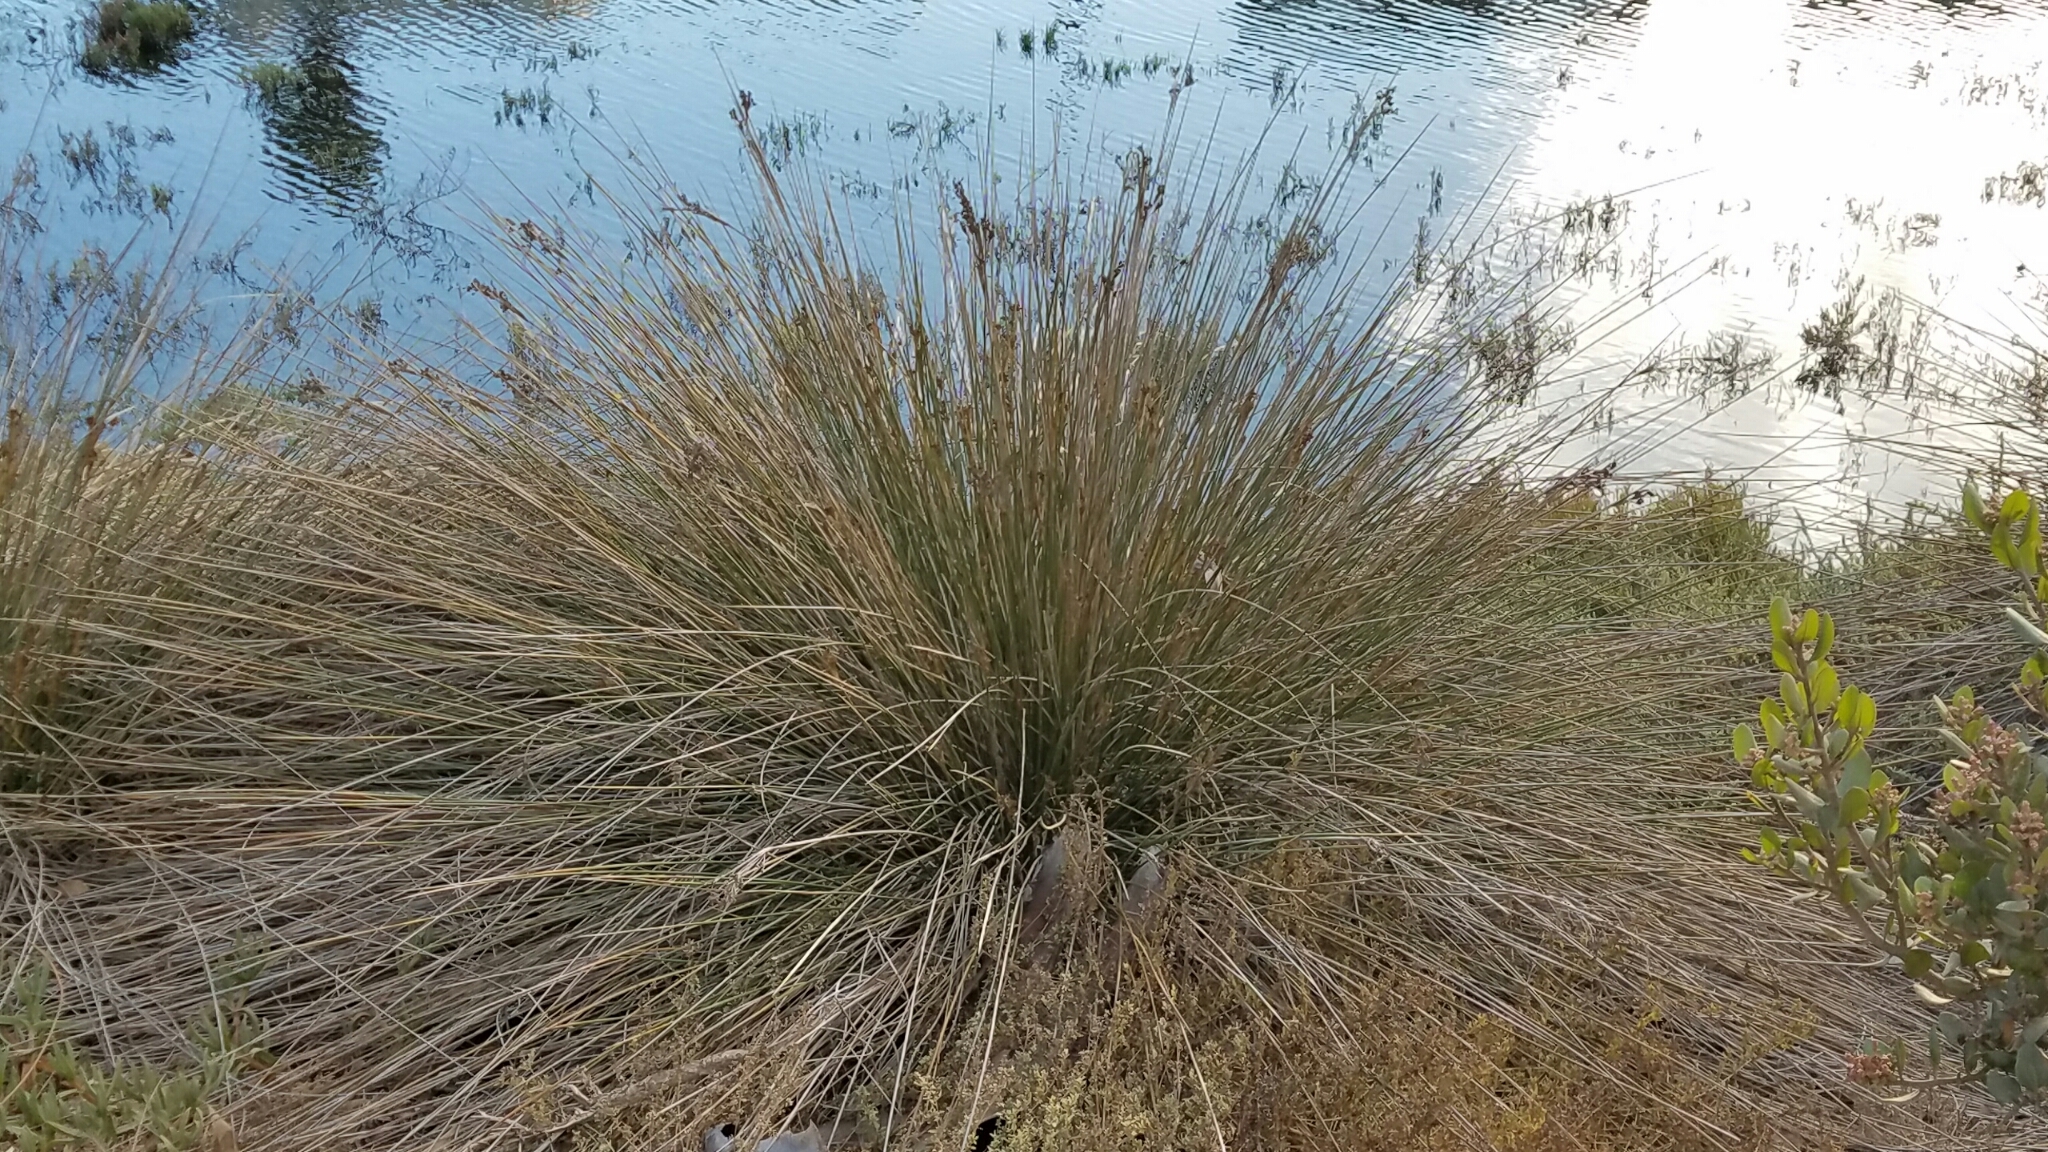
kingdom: Plantae
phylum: Tracheophyta
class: Liliopsida
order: Poales
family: Juncaceae
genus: Juncus
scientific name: Juncus acutus
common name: Sharp rush
